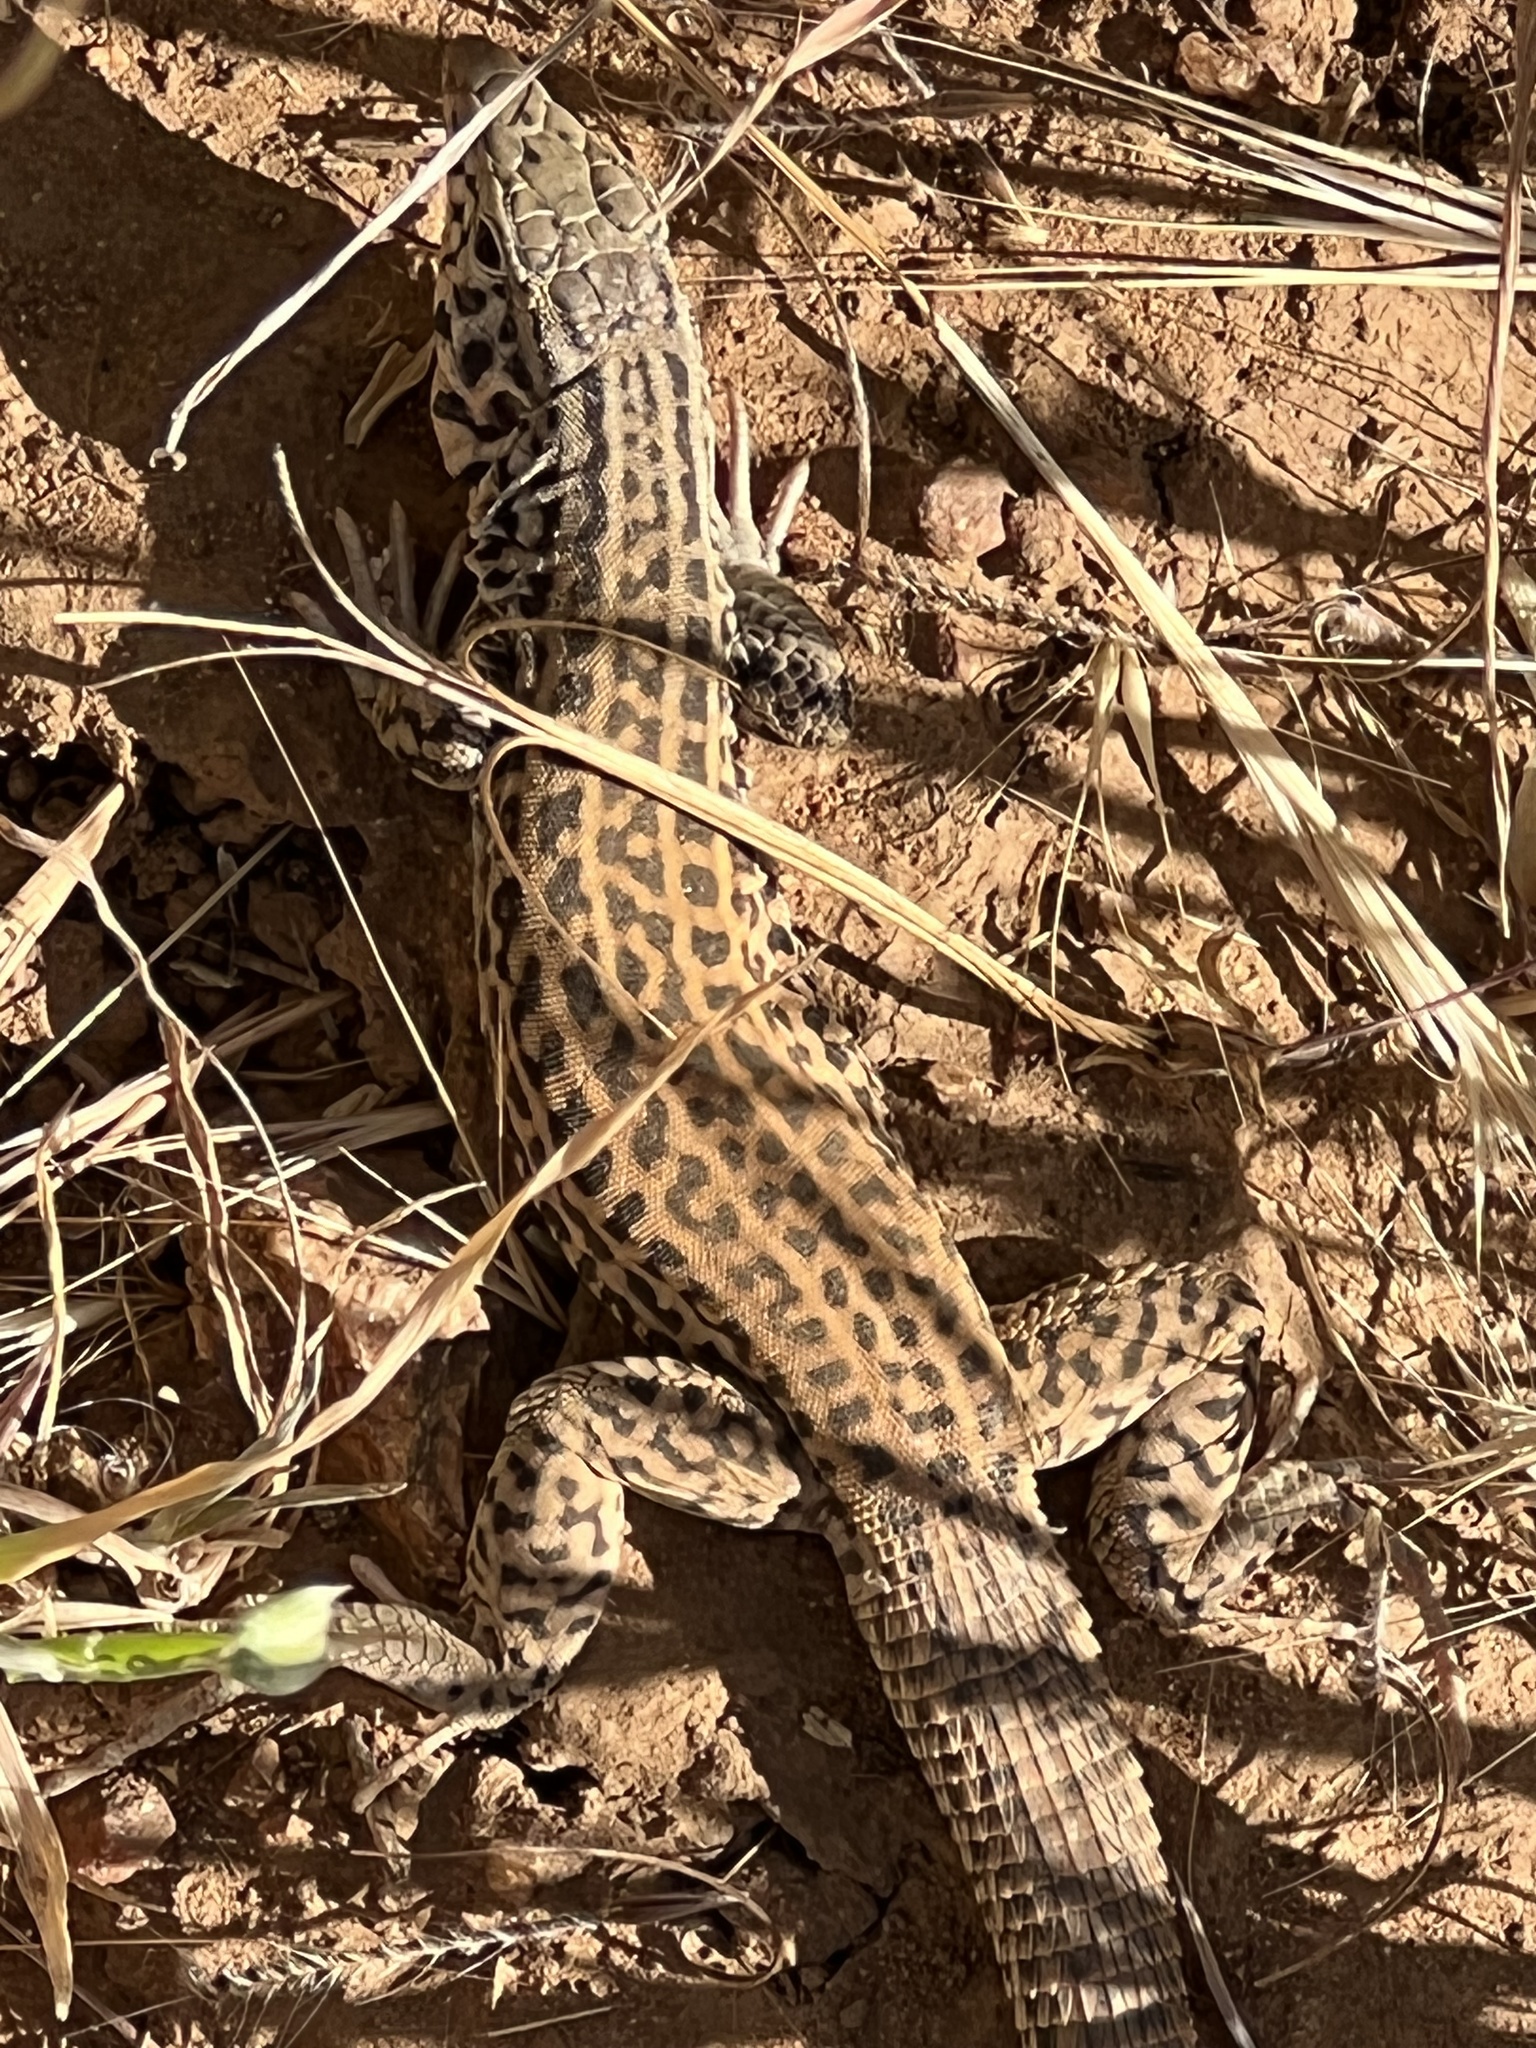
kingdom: Animalia
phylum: Chordata
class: Squamata
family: Teiidae
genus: Aspidoscelis
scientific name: Aspidoscelis tigris
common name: Tiger whiptail
